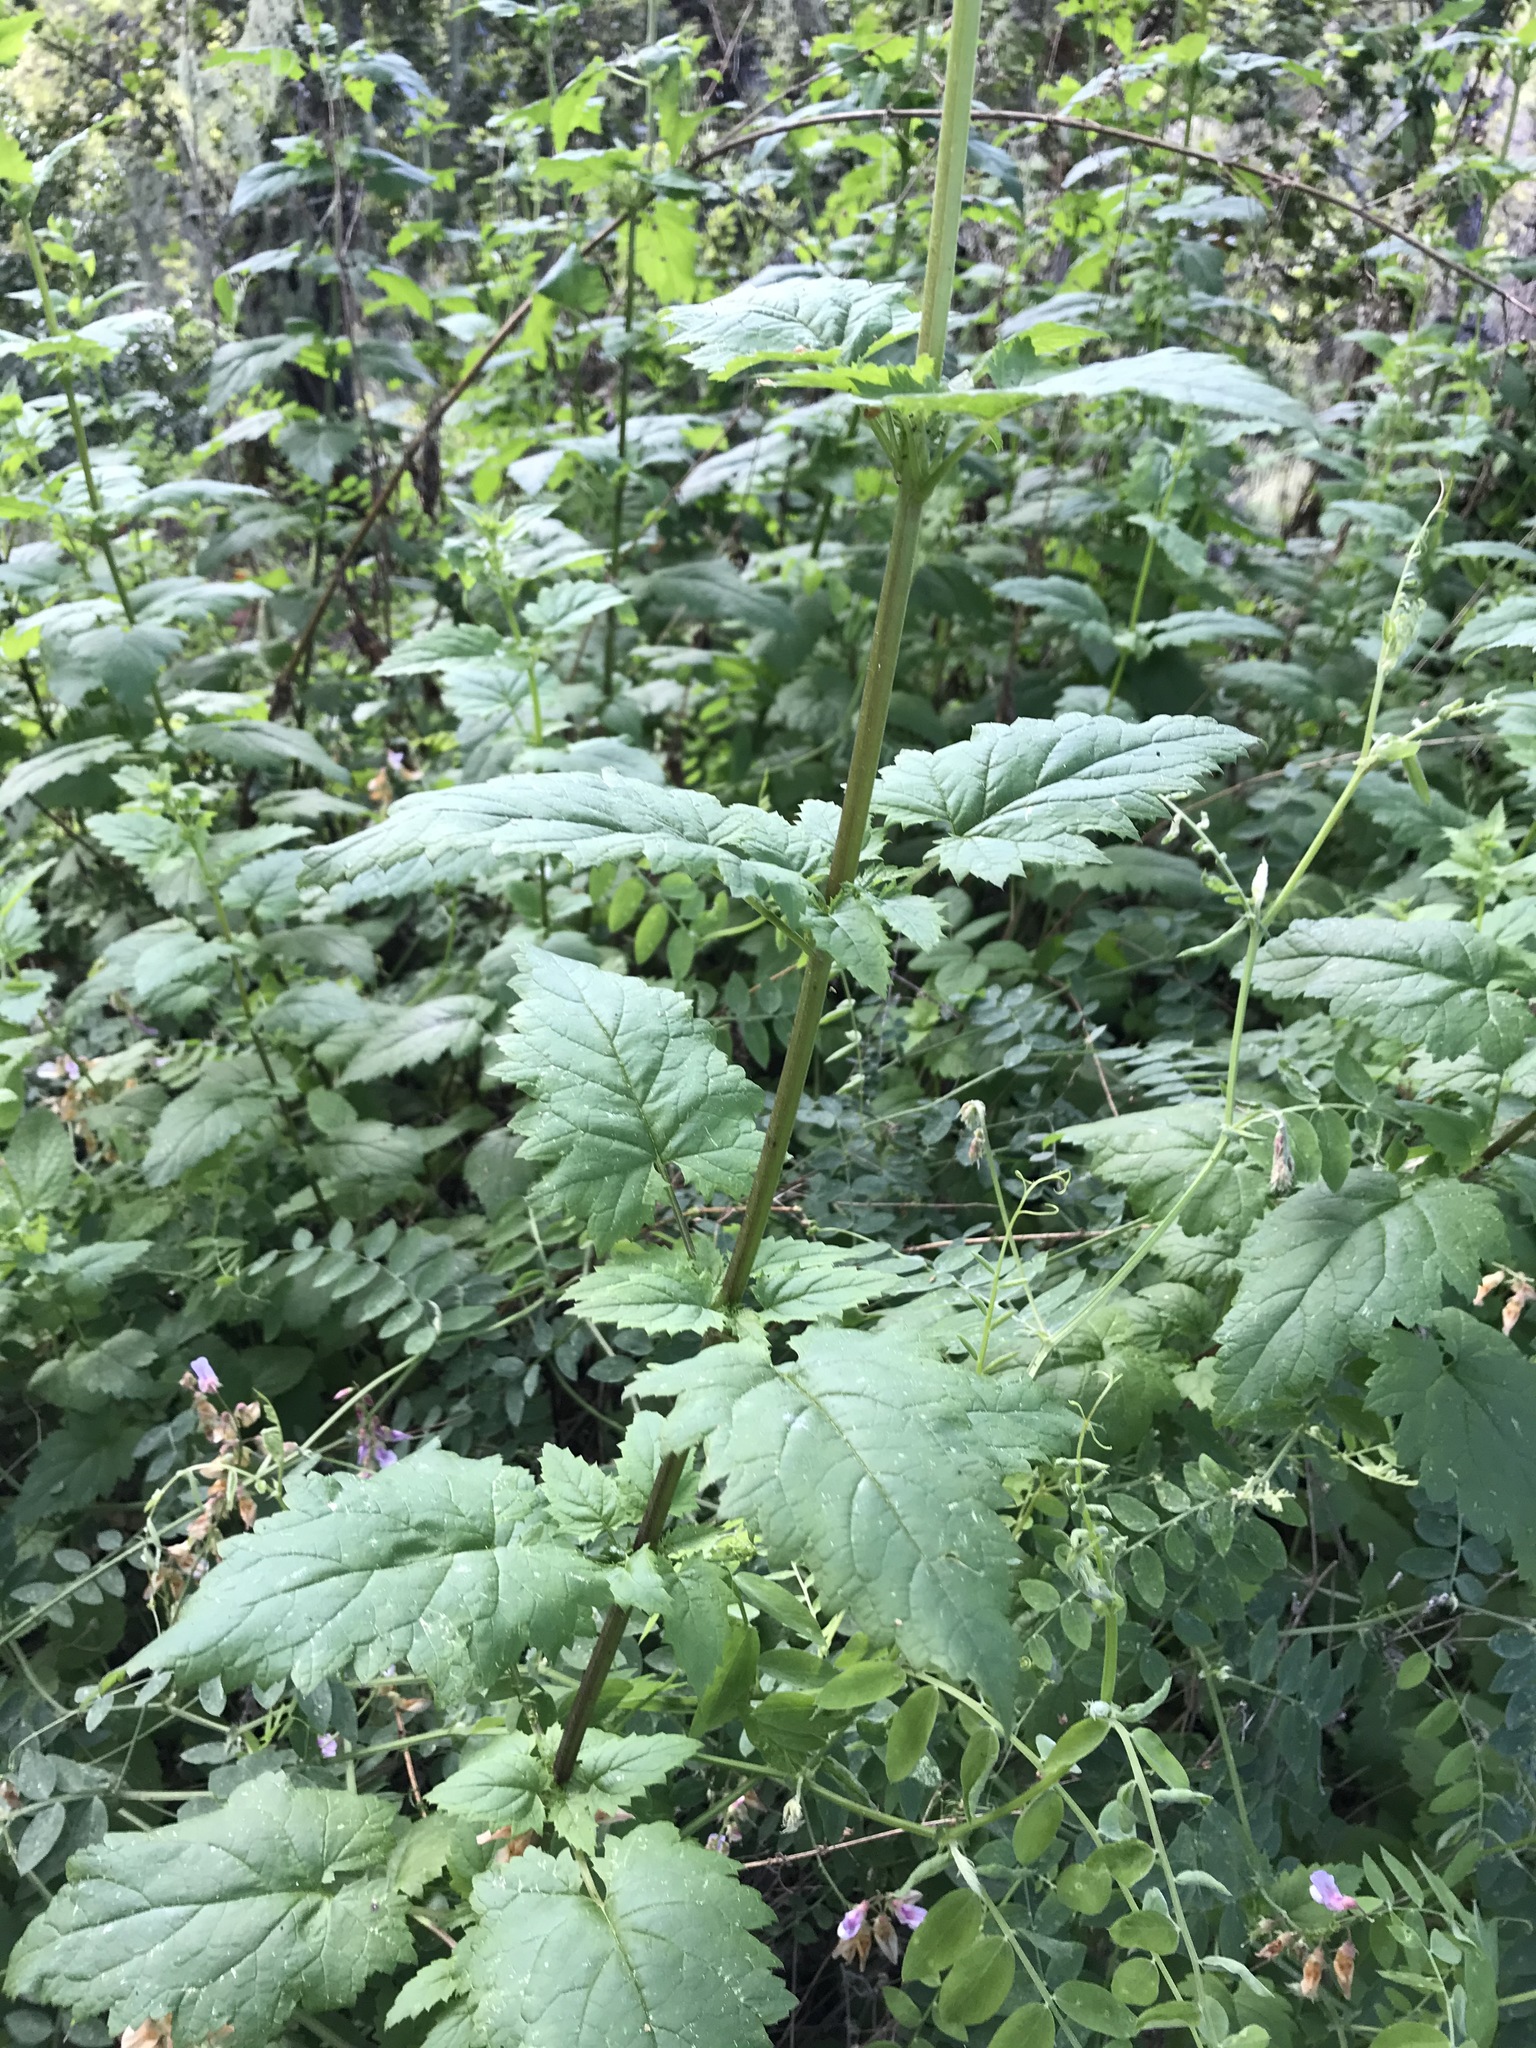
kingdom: Plantae
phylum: Tracheophyta
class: Magnoliopsida
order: Lamiales
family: Scrophulariaceae
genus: Scrophularia
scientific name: Scrophularia californica
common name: California figwort
